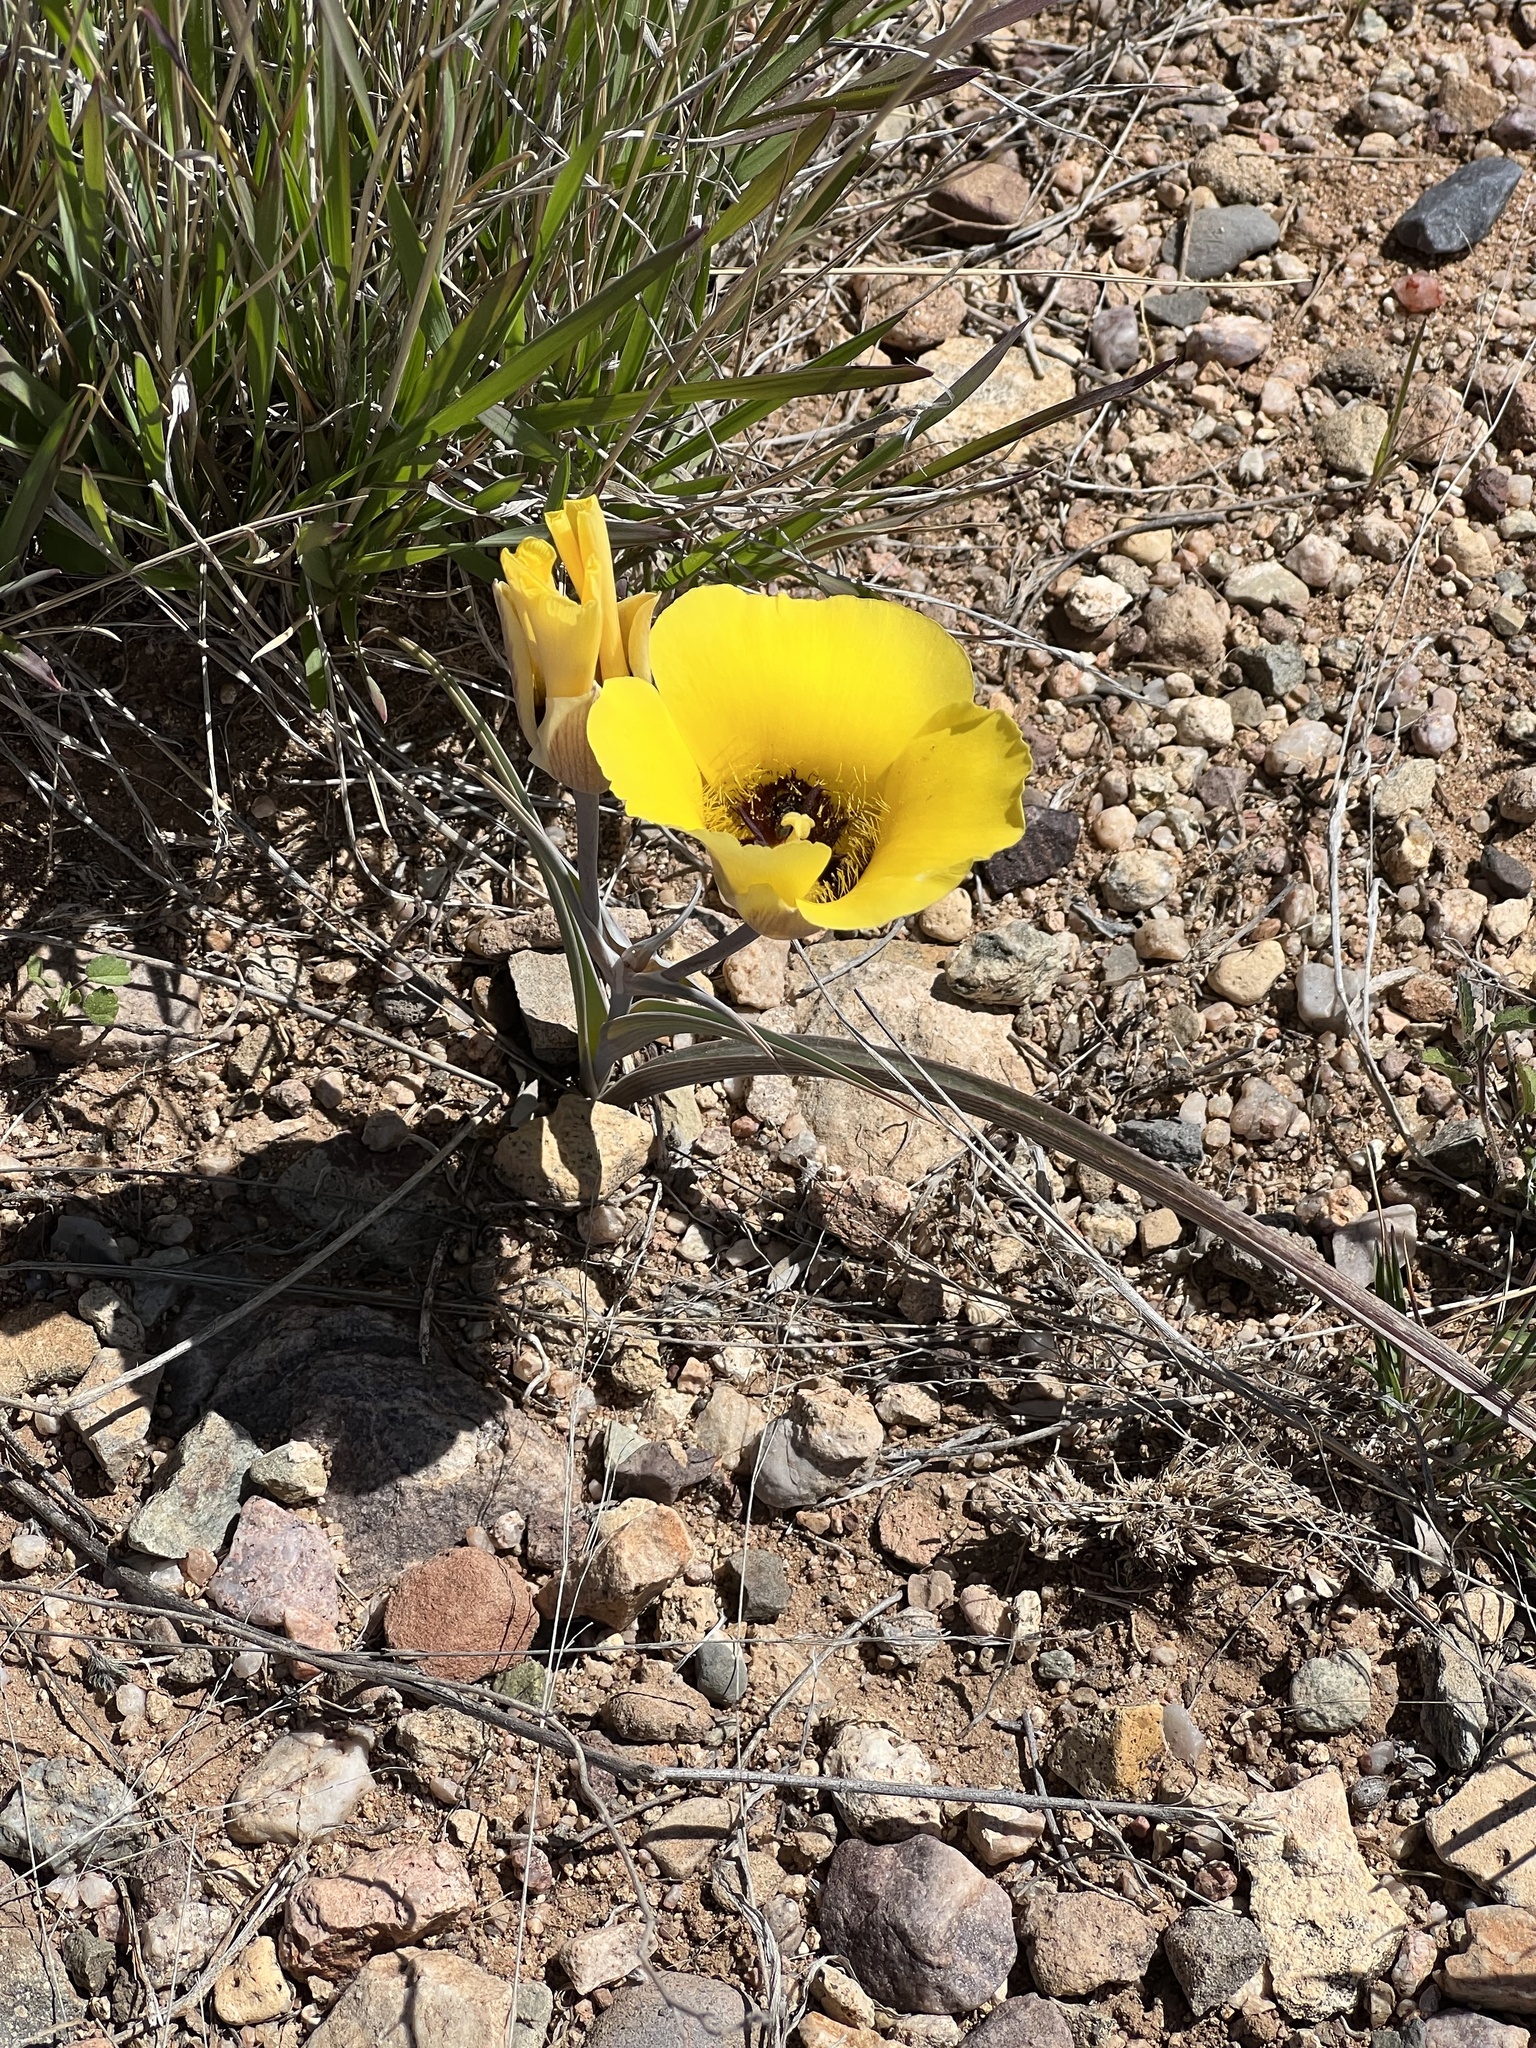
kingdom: Plantae
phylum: Tracheophyta
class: Liliopsida
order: Liliales
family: Liliaceae
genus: Calochortus
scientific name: Calochortus kennedyi
